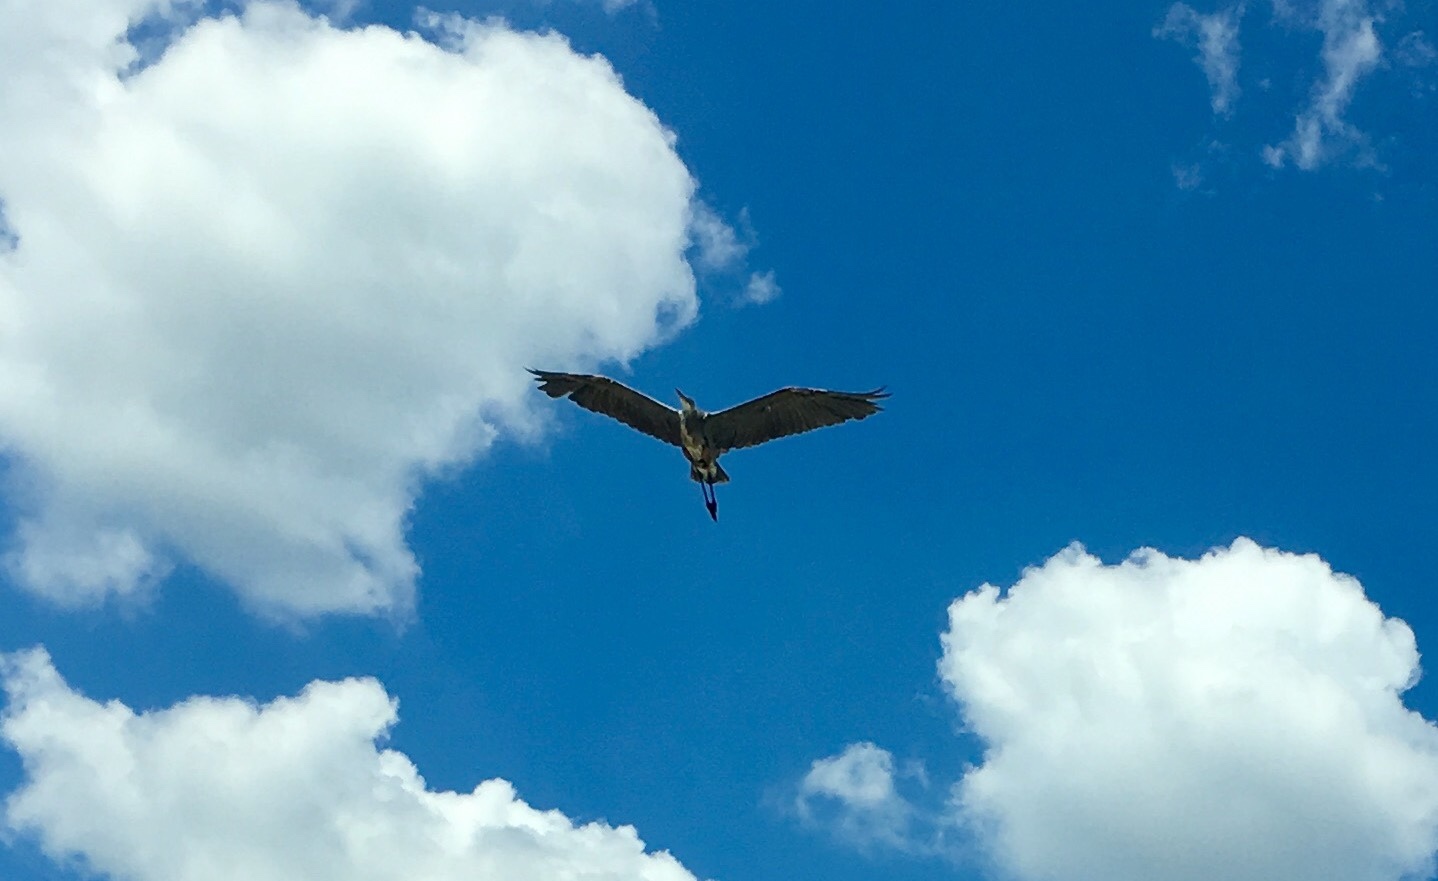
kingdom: Animalia
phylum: Chordata
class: Aves
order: Pelecaniformes
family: Ardeidae
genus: Ardea
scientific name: Ardea herodias
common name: Great blue heron
